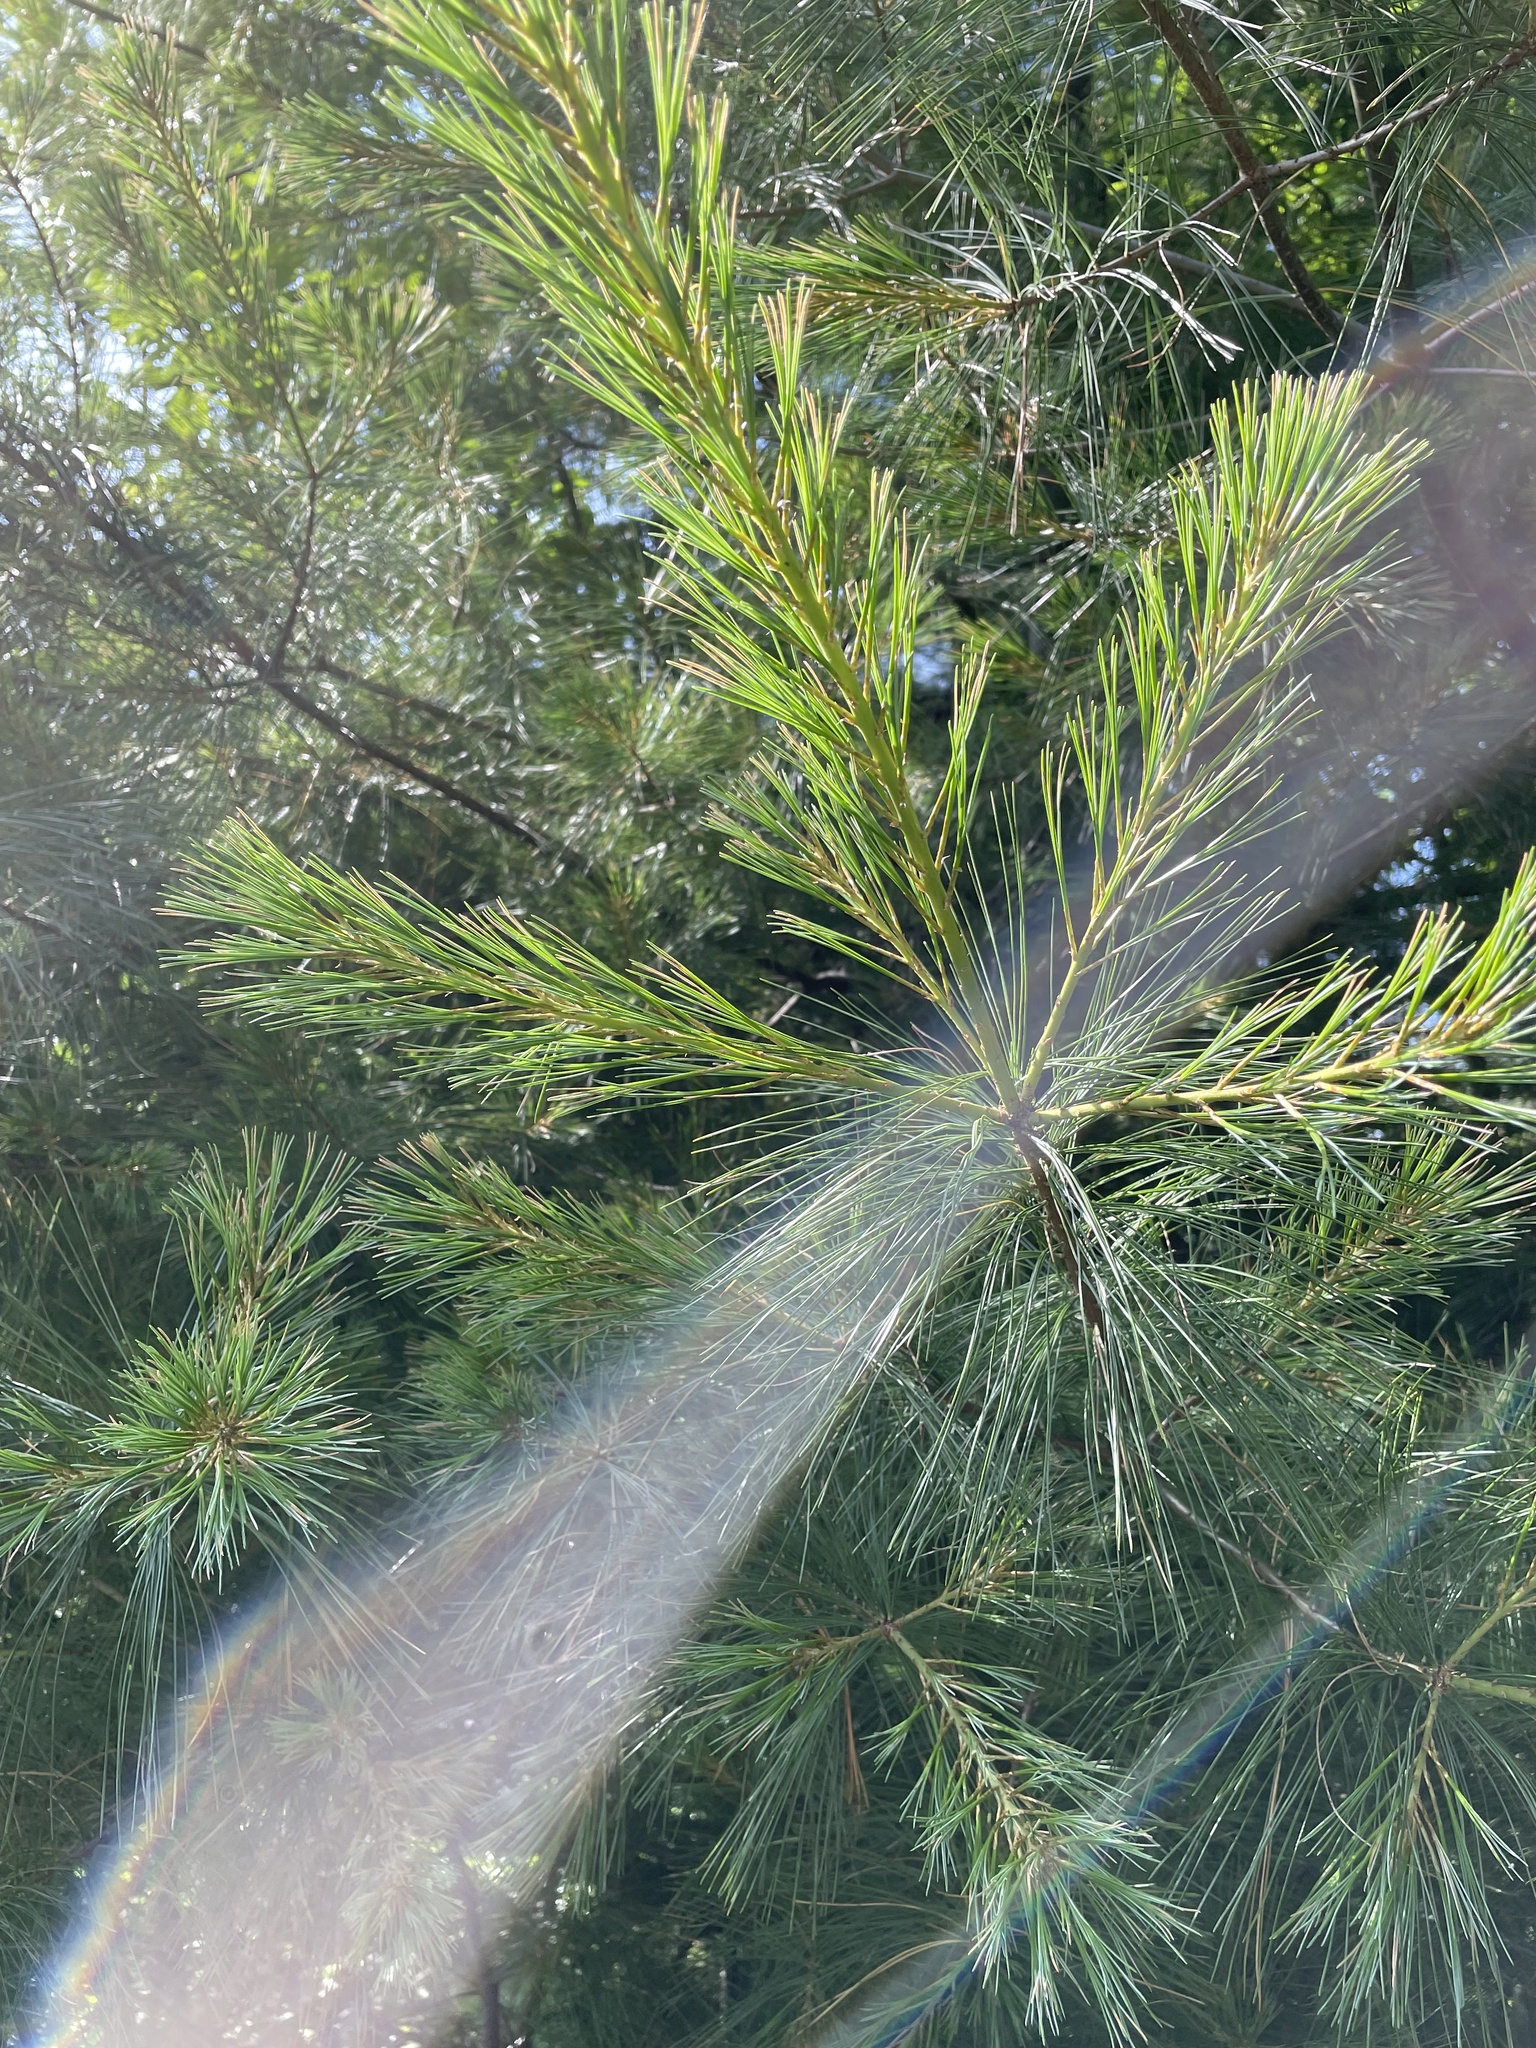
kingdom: Plantae
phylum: Tracheophyta
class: Pinopsida
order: Pinales
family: Pinaceae
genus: Pinus
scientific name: Pinus strobus
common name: Weymouth pine
